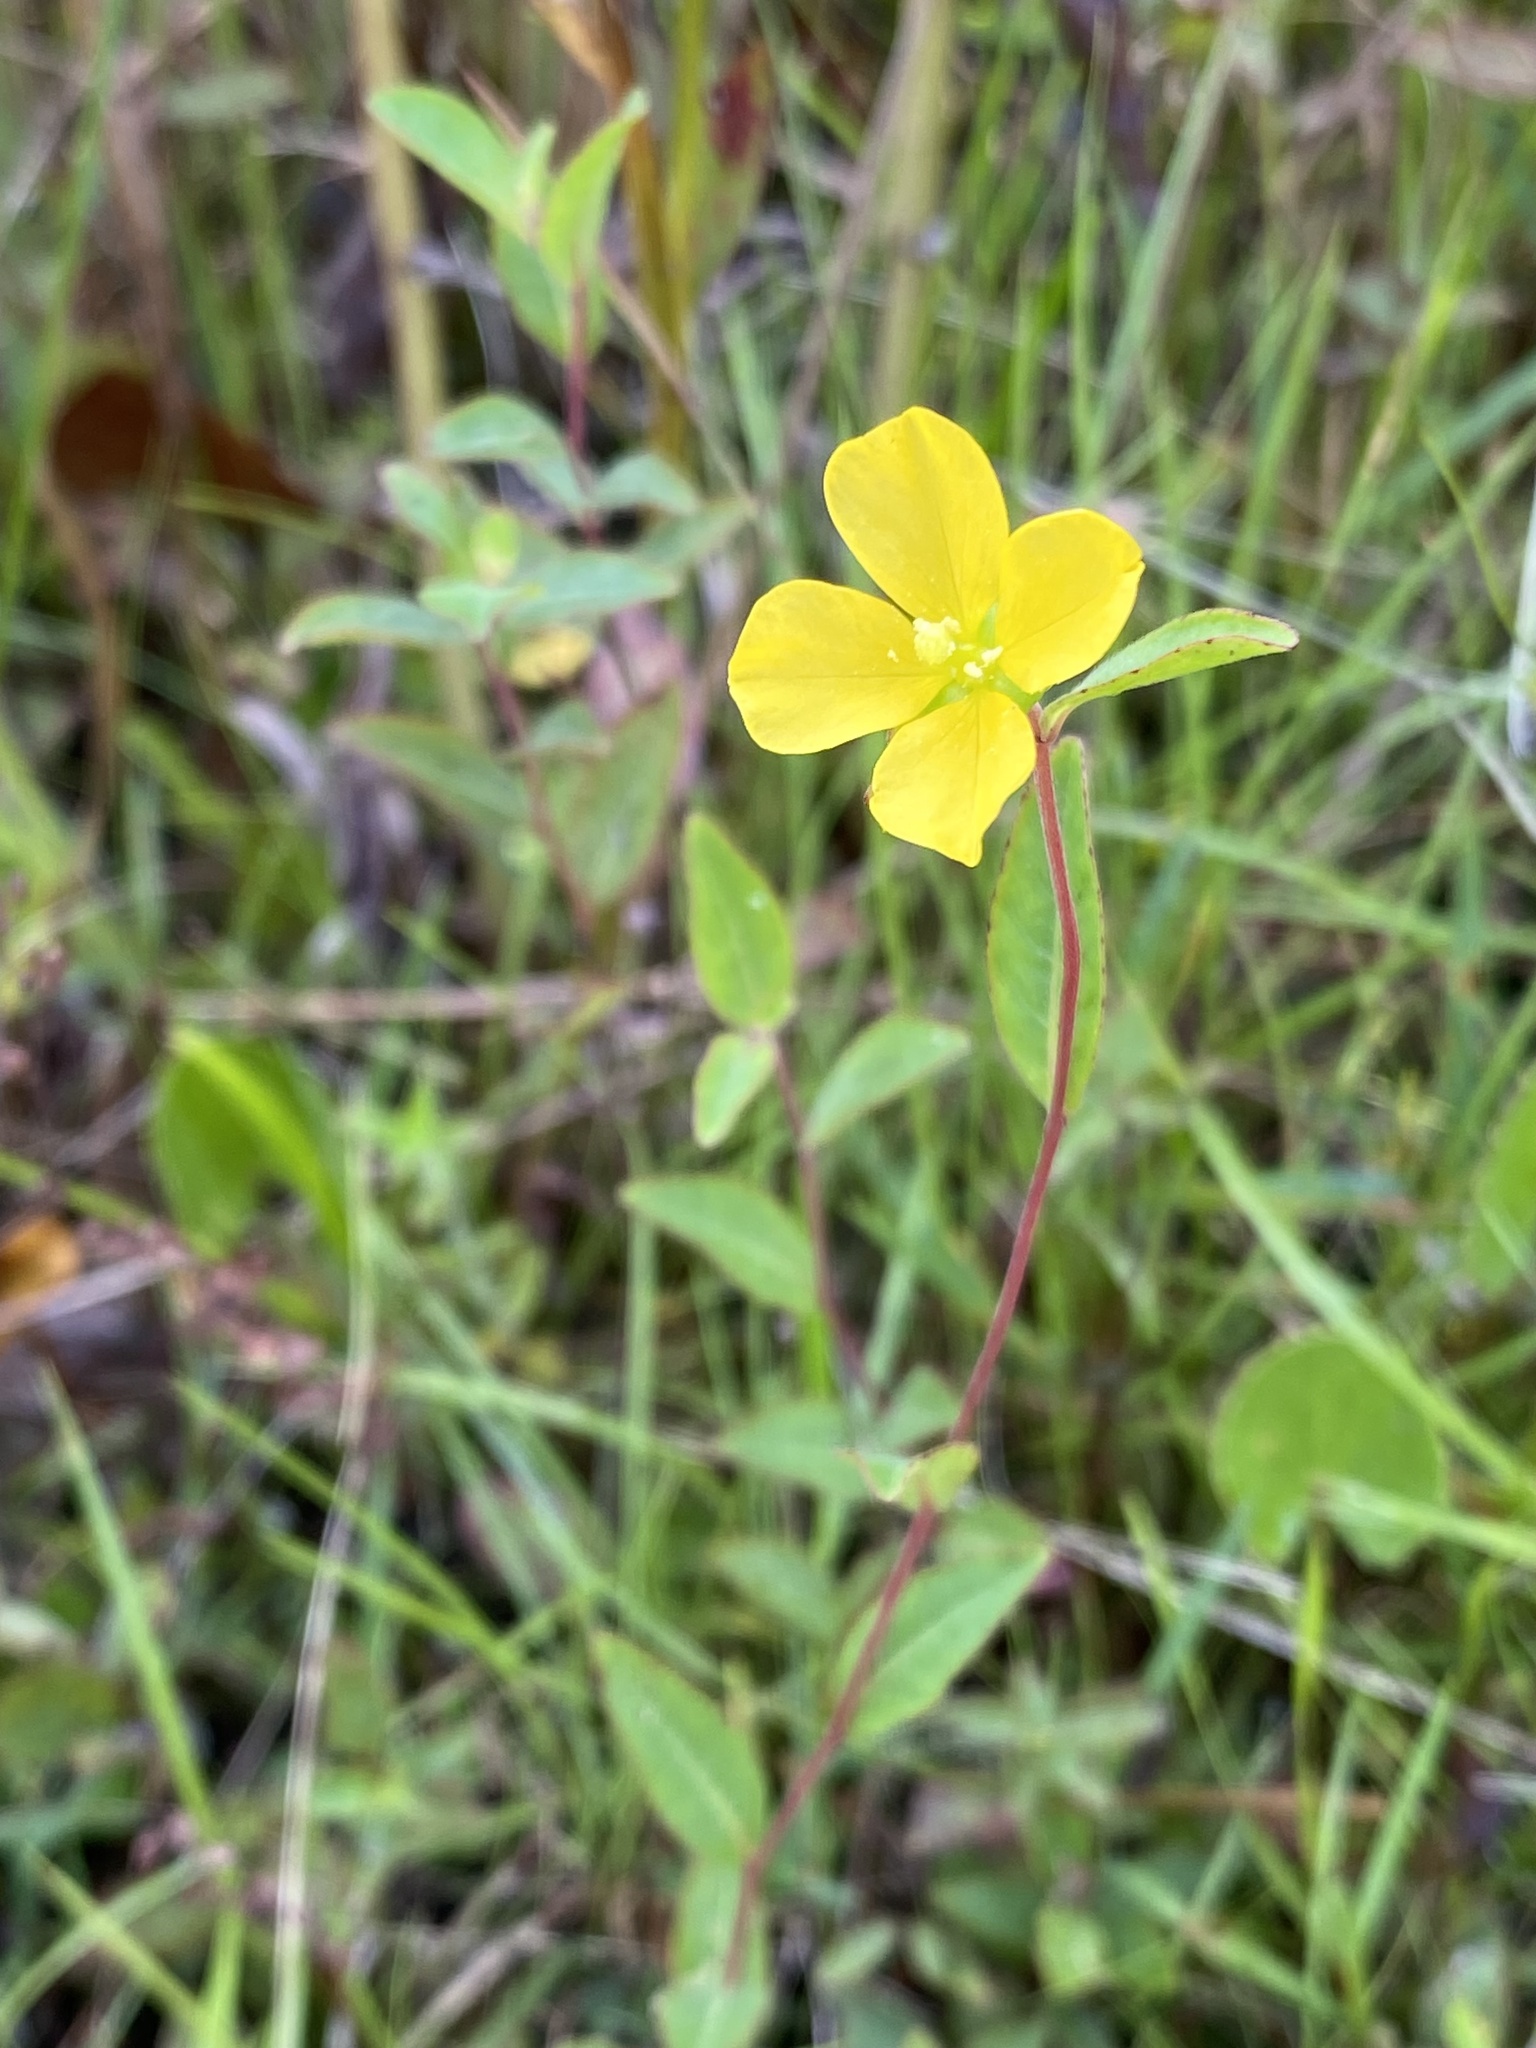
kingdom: Plantae
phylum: Tracheophyta
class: Magnoliopsida
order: Myrtales
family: Onagraceae
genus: Ludwigia
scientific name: Ludwigia maritima
